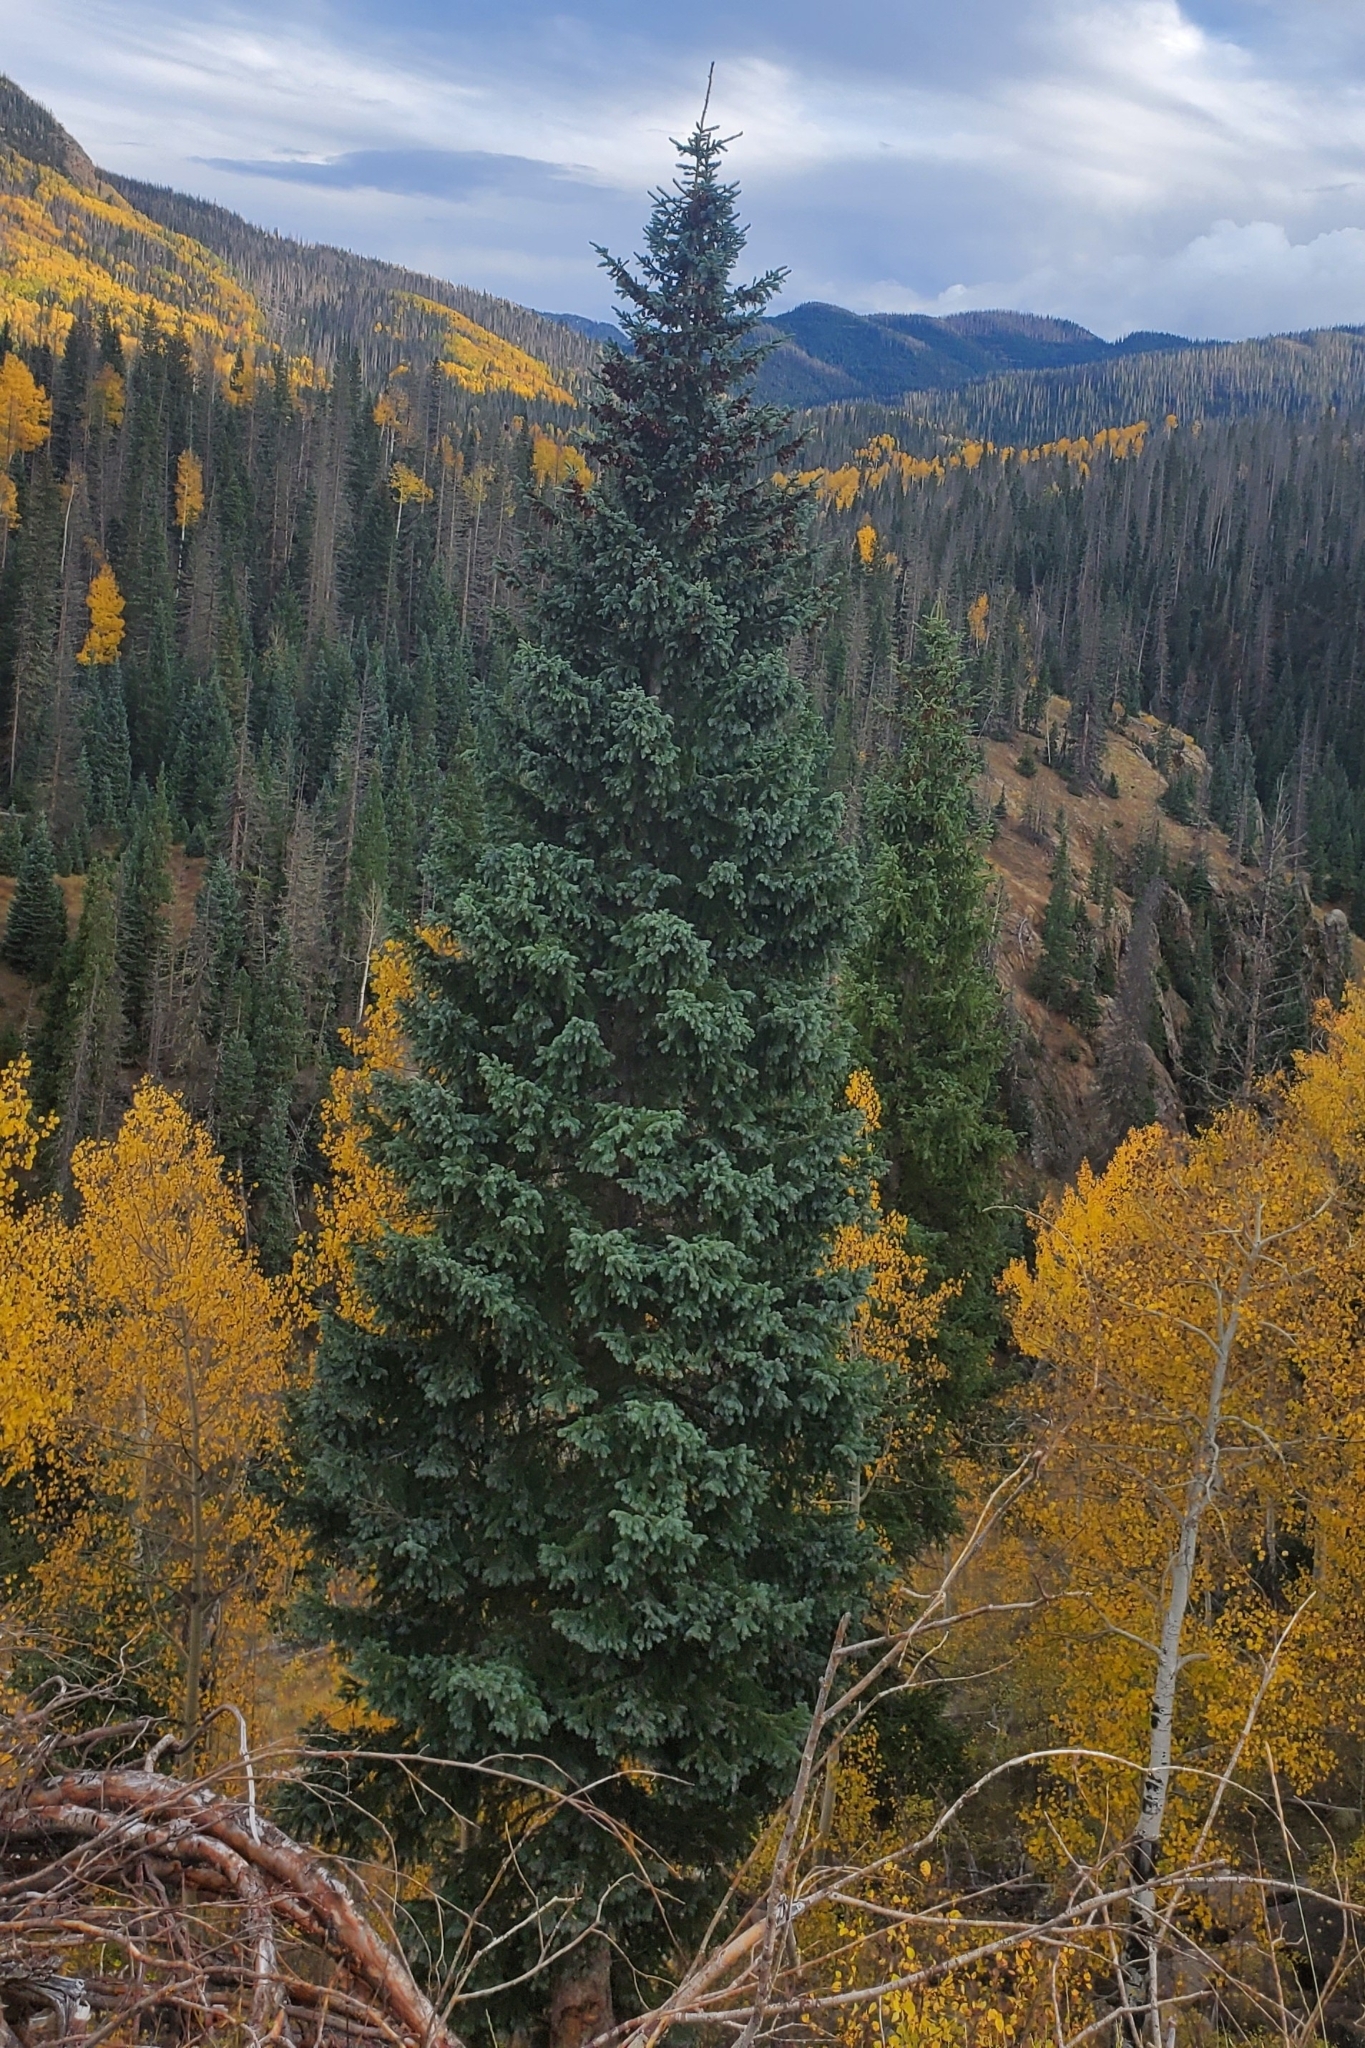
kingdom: Plantae
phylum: Tracheophyta
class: Pinopsida
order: Pinales
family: Pinaceae
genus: Picea
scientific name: Picea engelmannii
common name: Engelmann spruce
